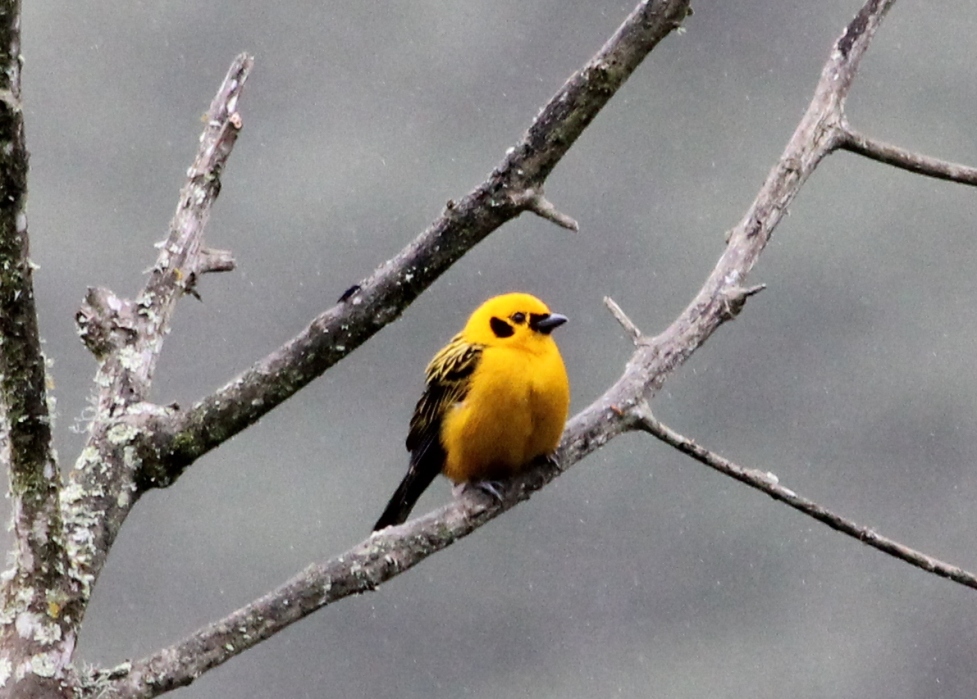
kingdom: Animalia
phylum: Chordata
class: Aves
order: Passeriformes
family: Thraupidae
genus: Tangara
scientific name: Tangara arthus
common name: Golden tanager
